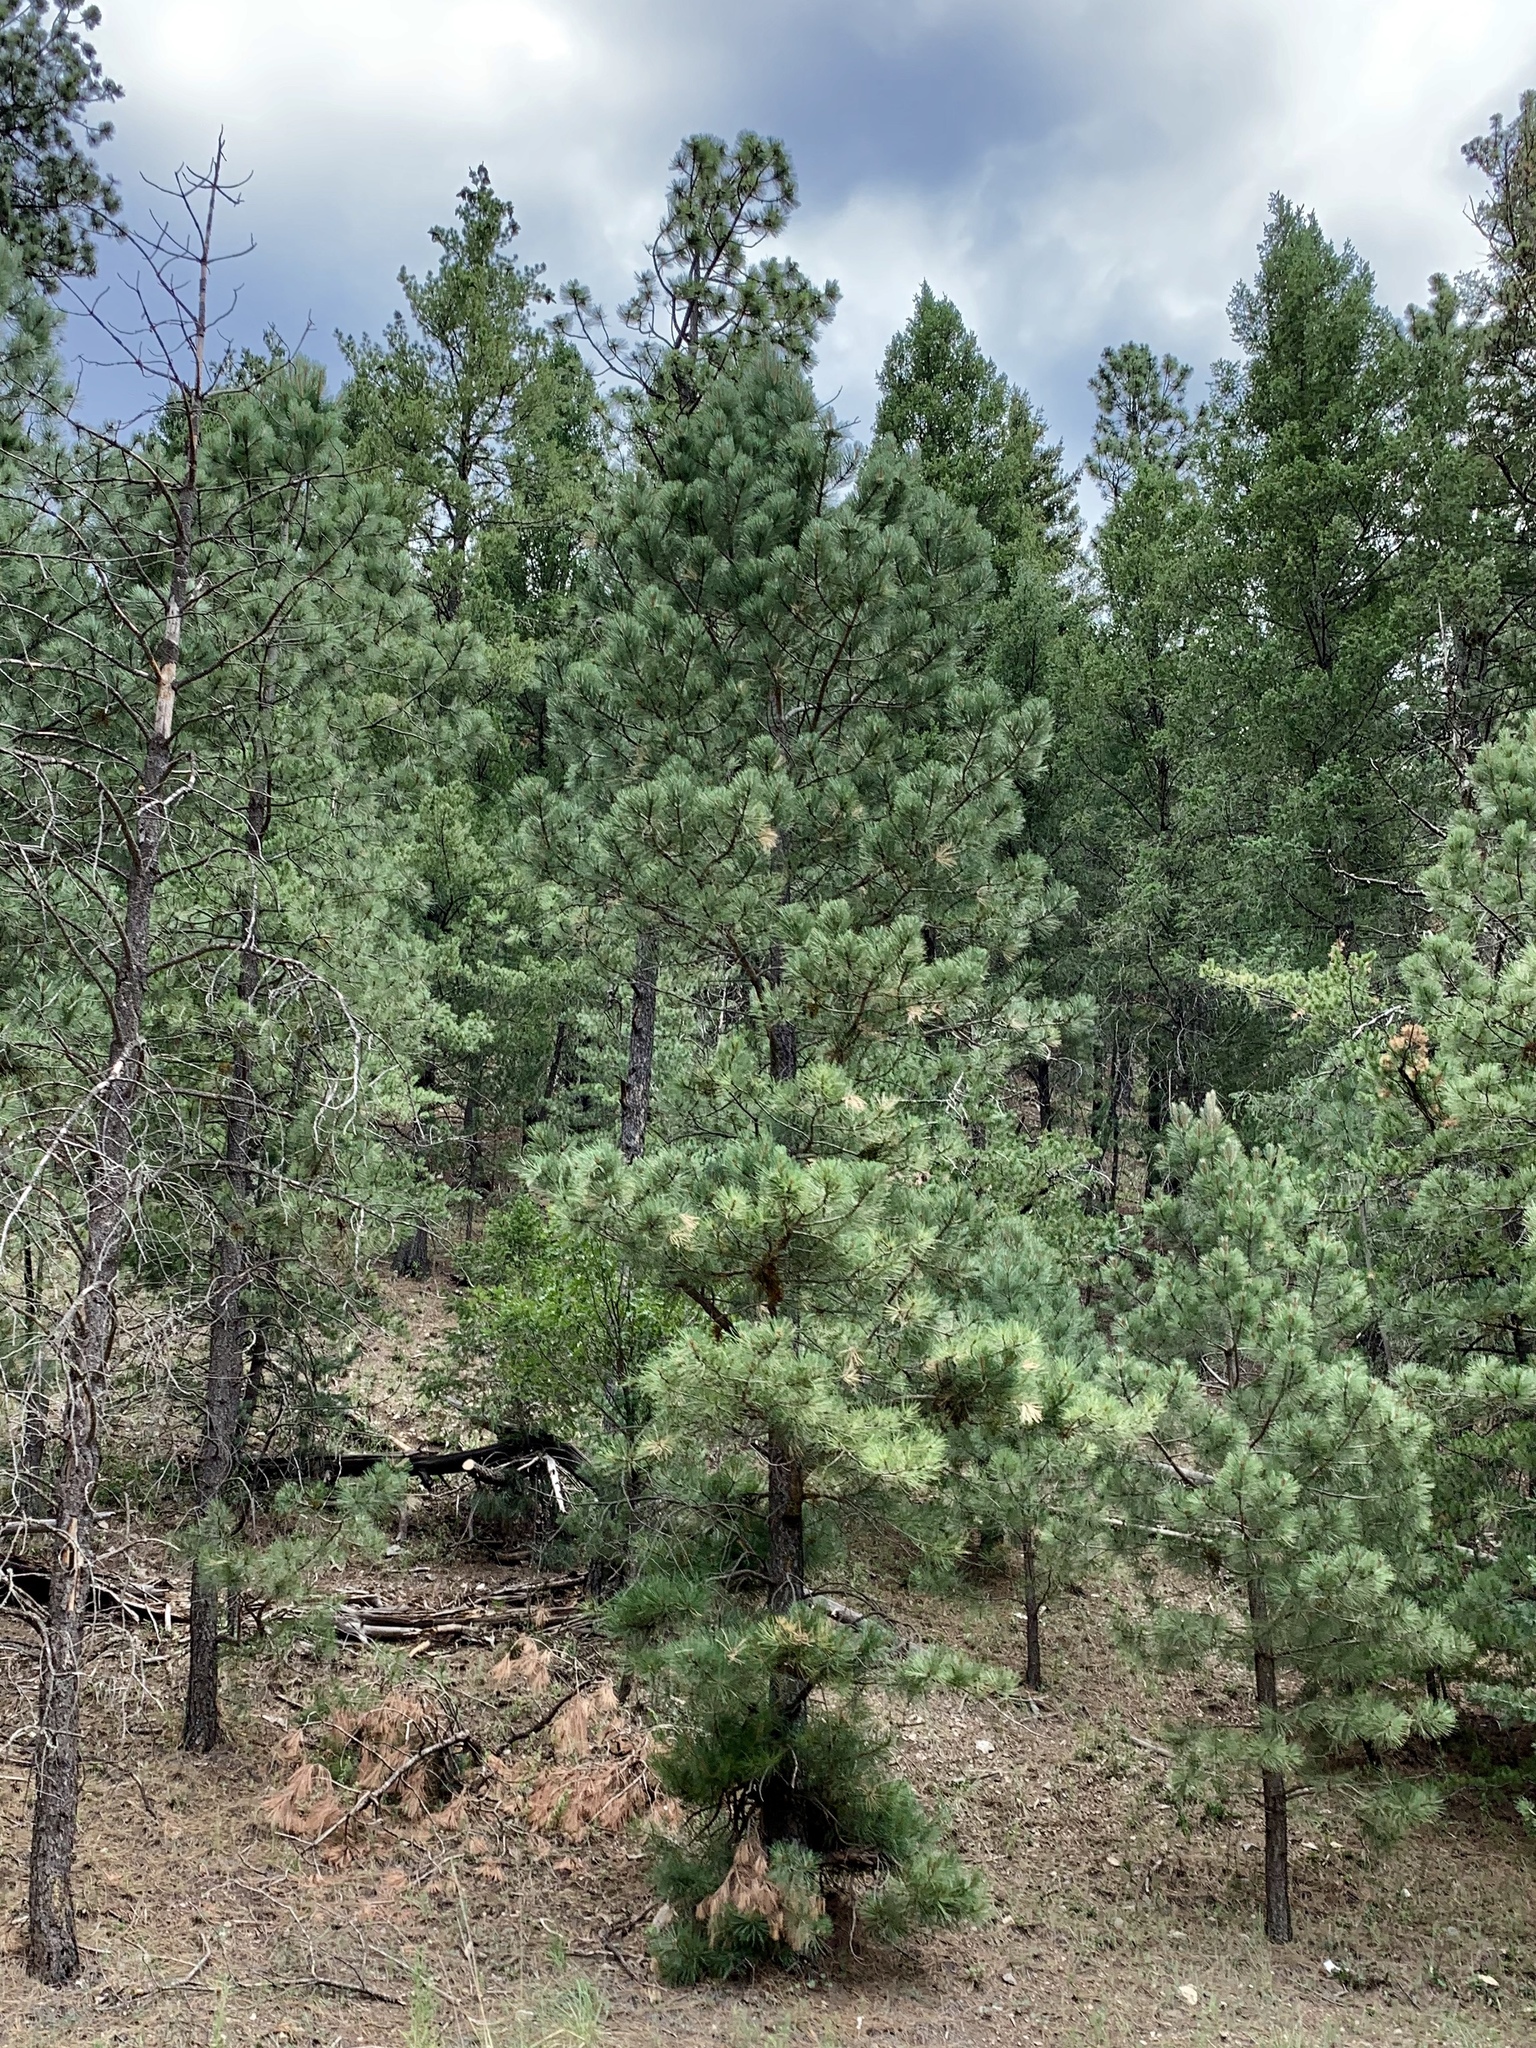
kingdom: Plantae
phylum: Tracheophyta
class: Pinopsida
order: Pinales
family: Pinaceae
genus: Pinus
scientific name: Pinus ponderosa
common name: Western yellow-pine
